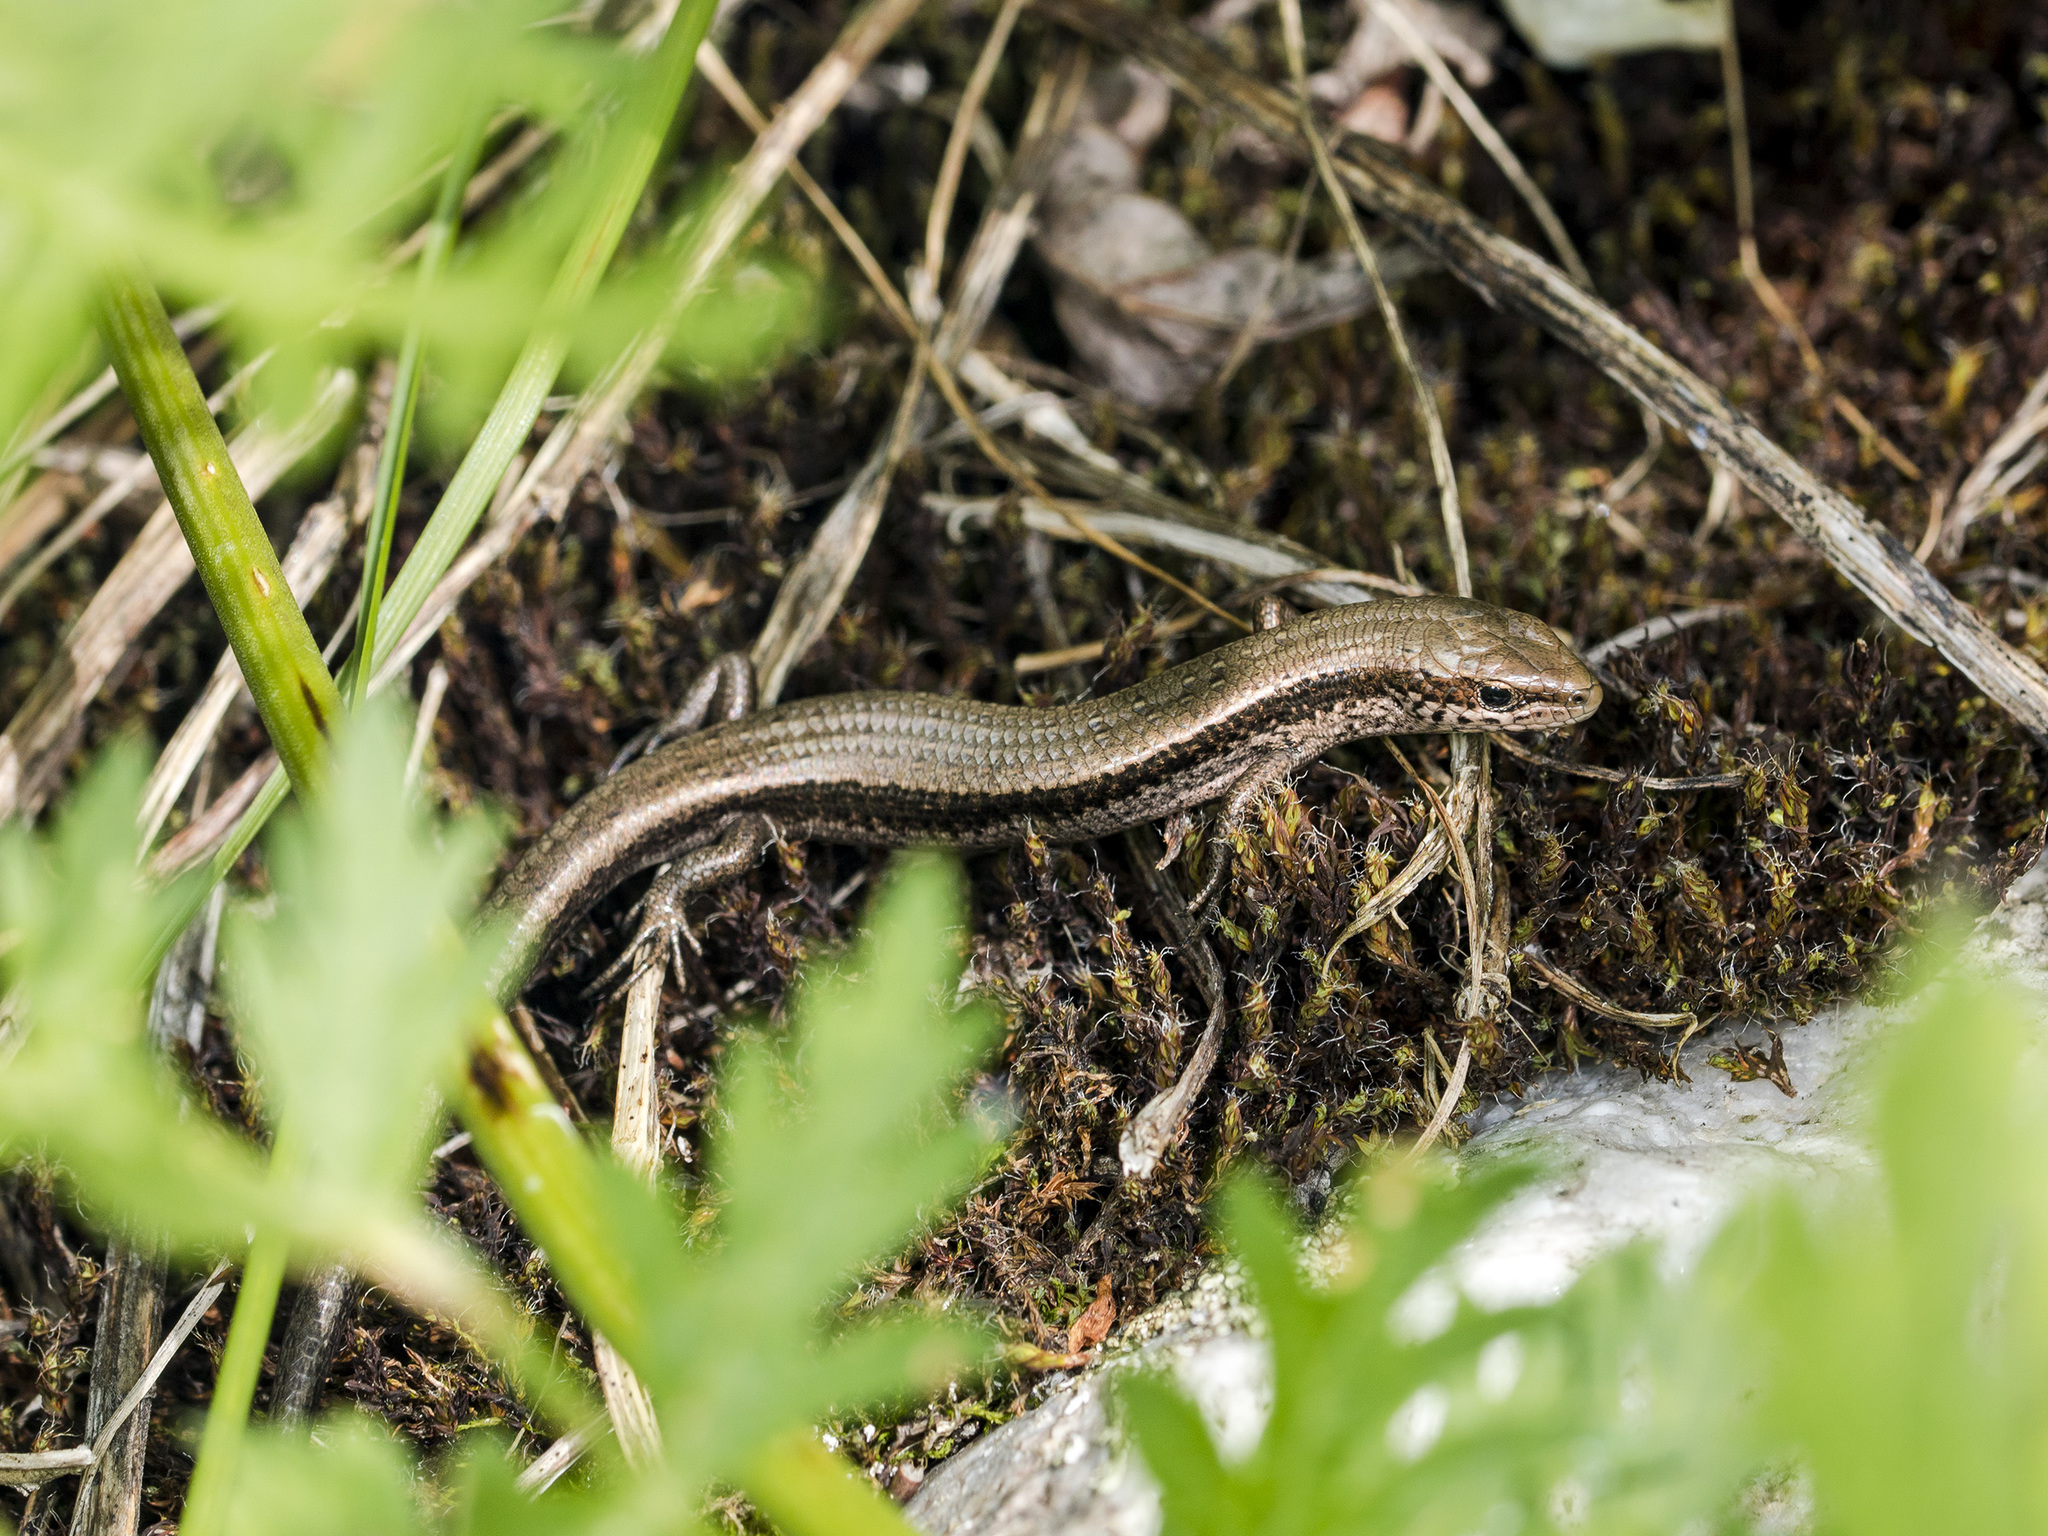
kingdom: Animalia
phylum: Chordata
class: Squamata
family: Scincidae
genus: Asymblepharus
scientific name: Asymblepharus alaicus
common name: Alai ground skink
